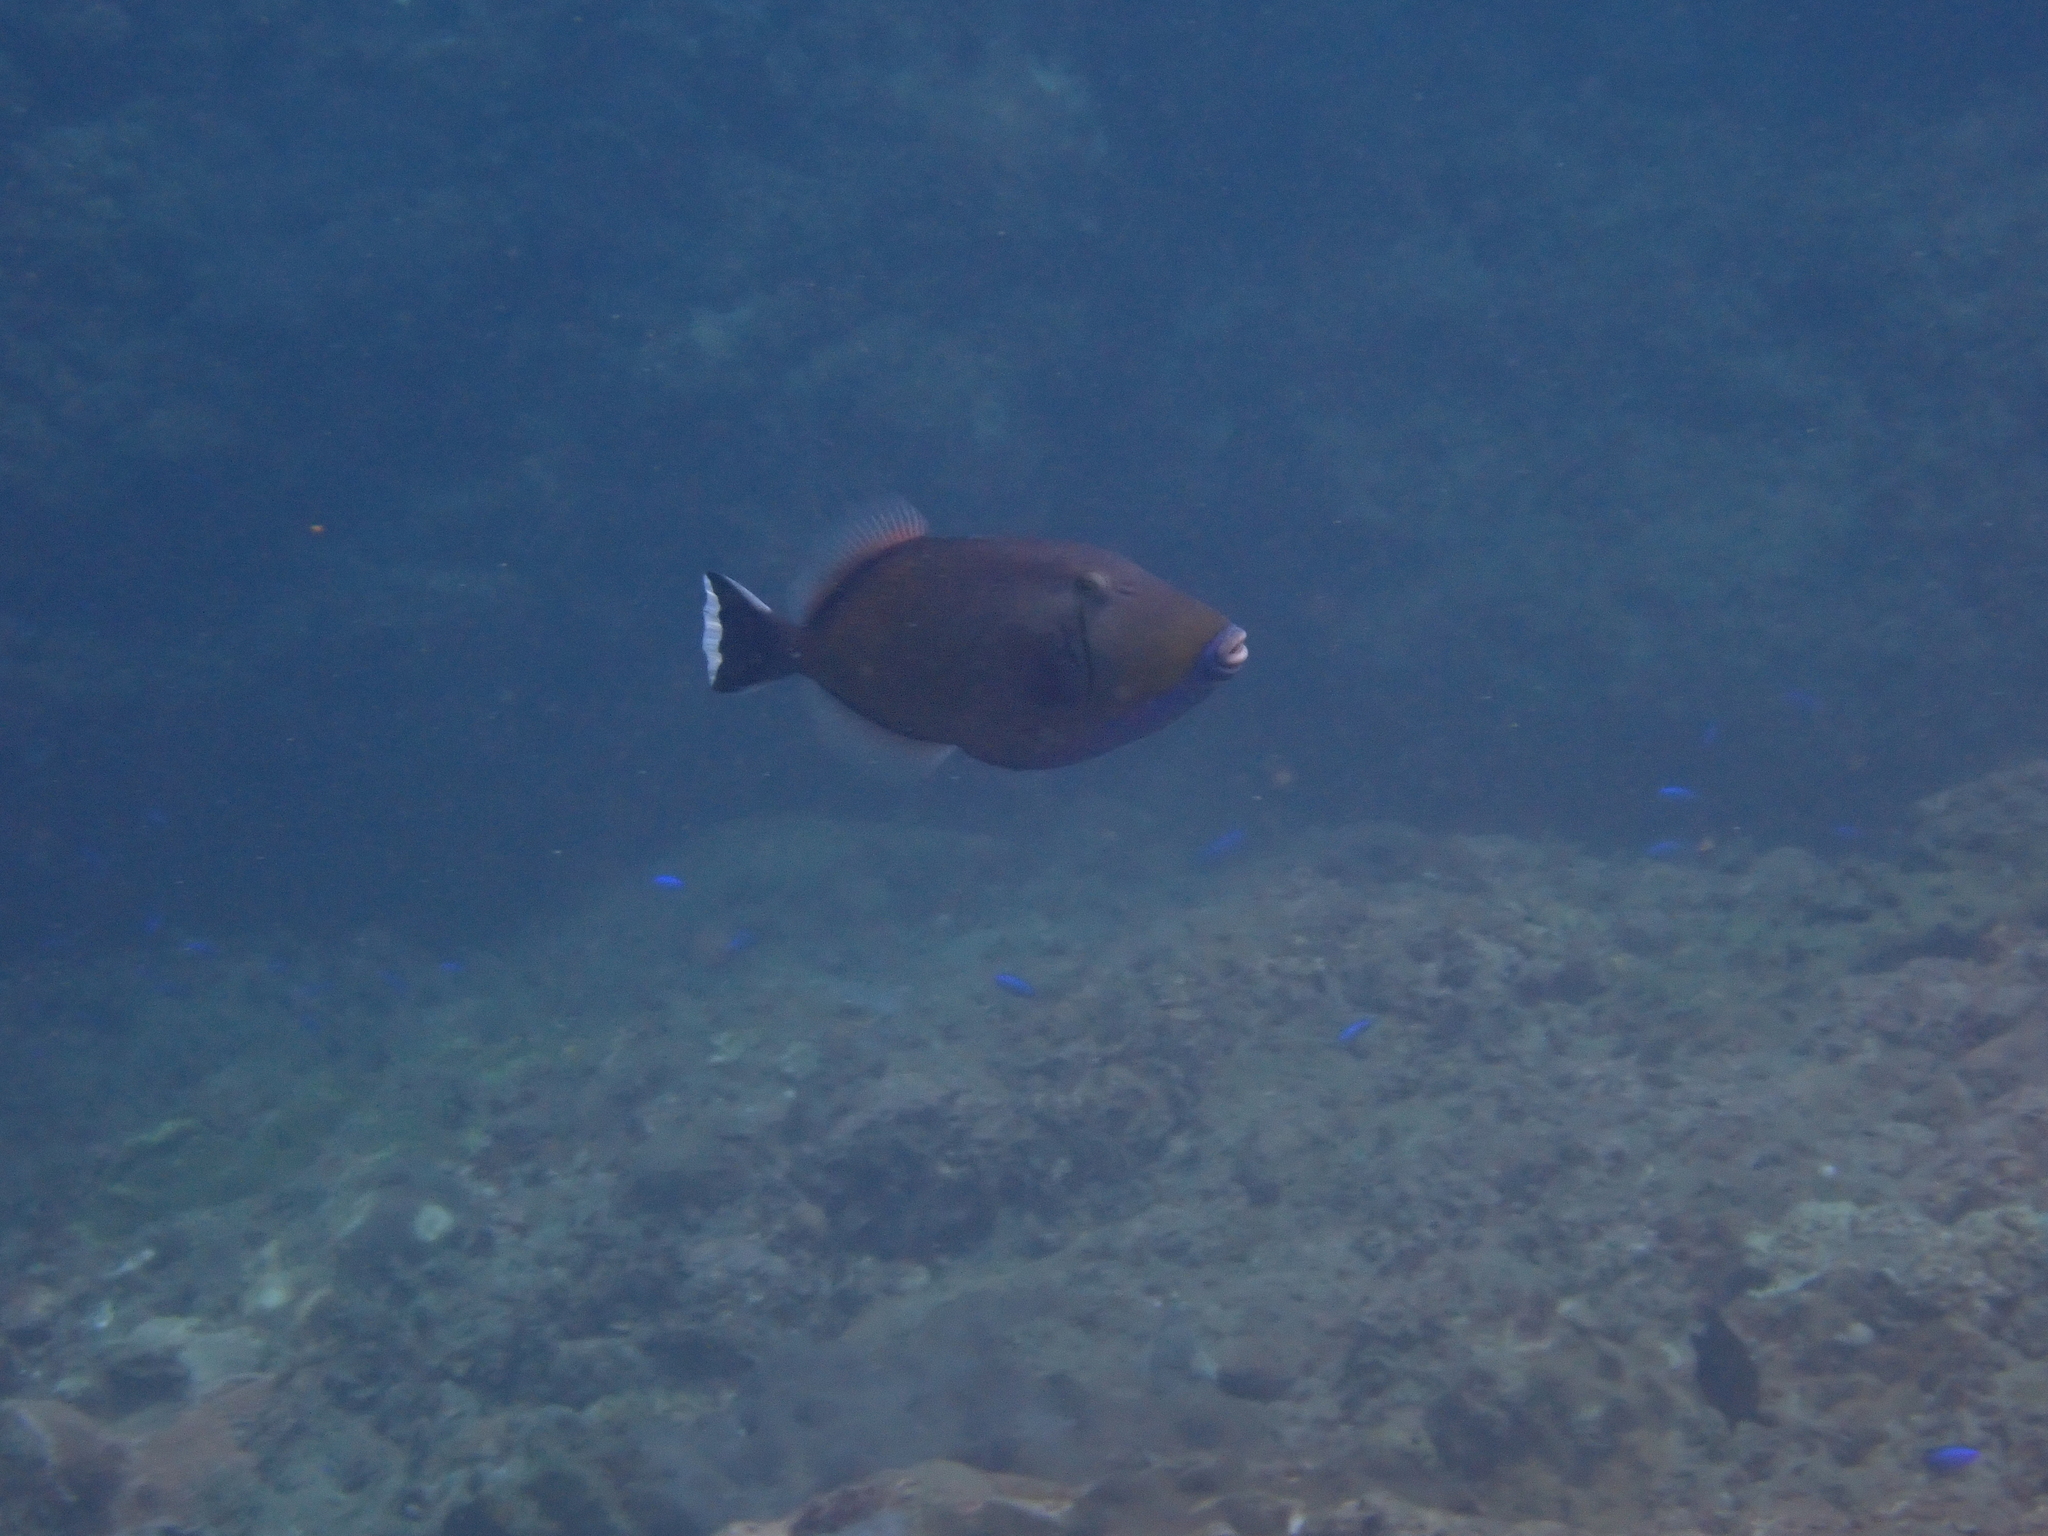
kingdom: Animalia
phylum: Chordata
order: Tetraodontiformes
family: Balistidae
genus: Sufflamen
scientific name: Sufflamen chrysopterum
